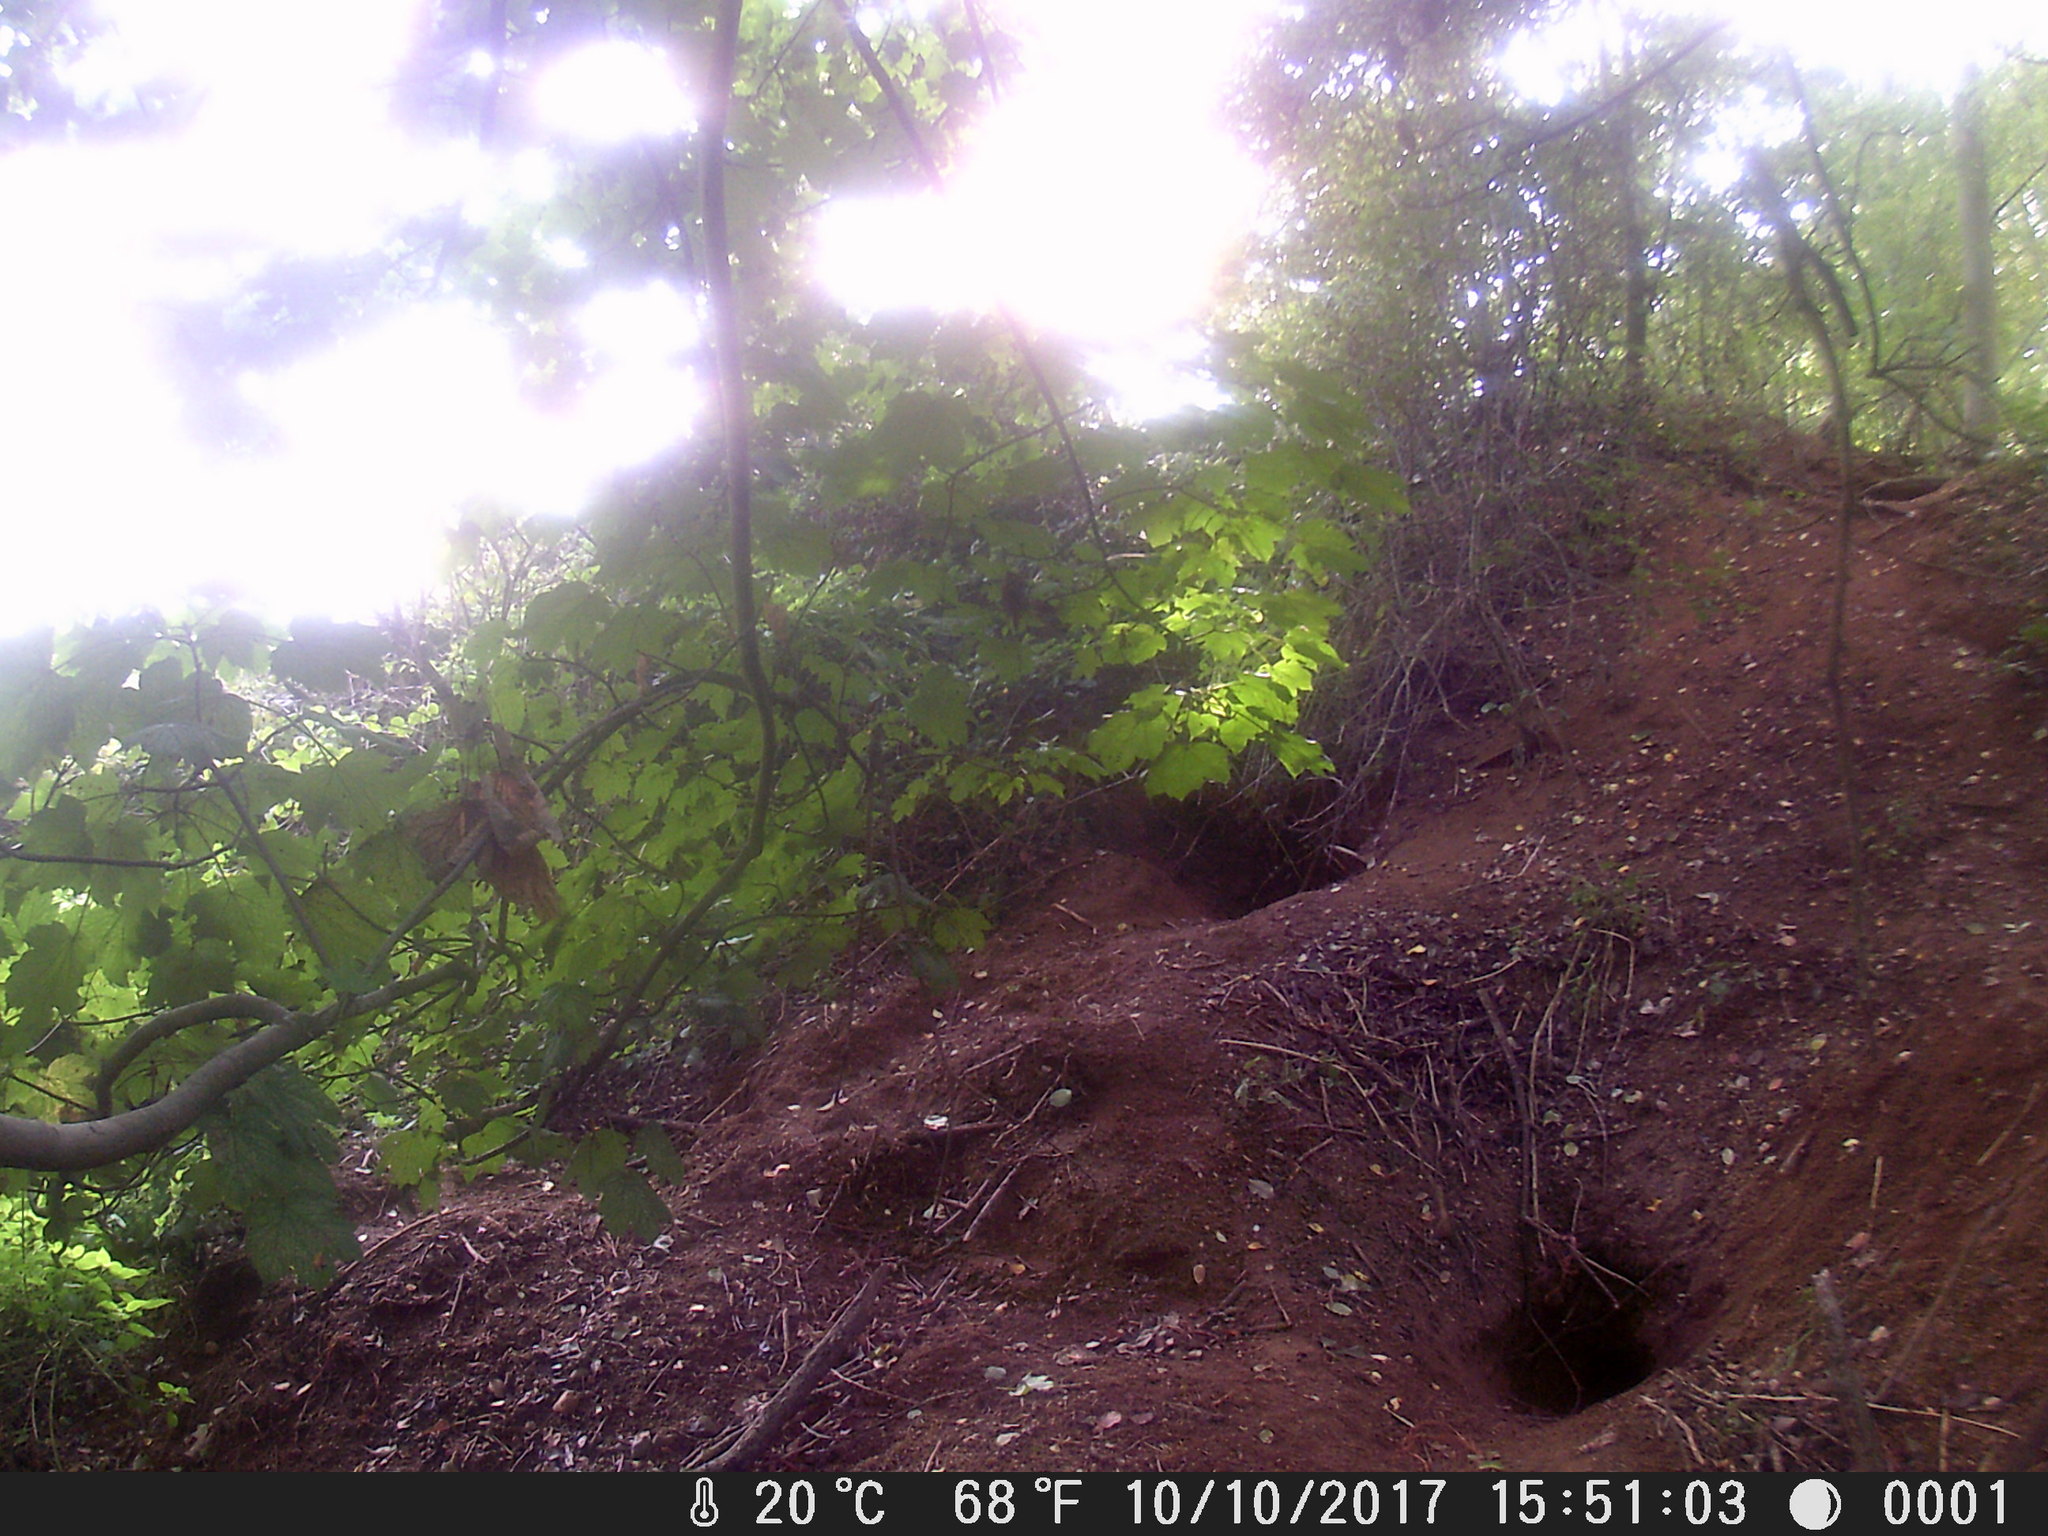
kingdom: Animalia
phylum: Chordata
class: Mammalia
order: Carnivora
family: Mustelidae
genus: Meles
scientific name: Meles meles
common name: Eurasian badger
